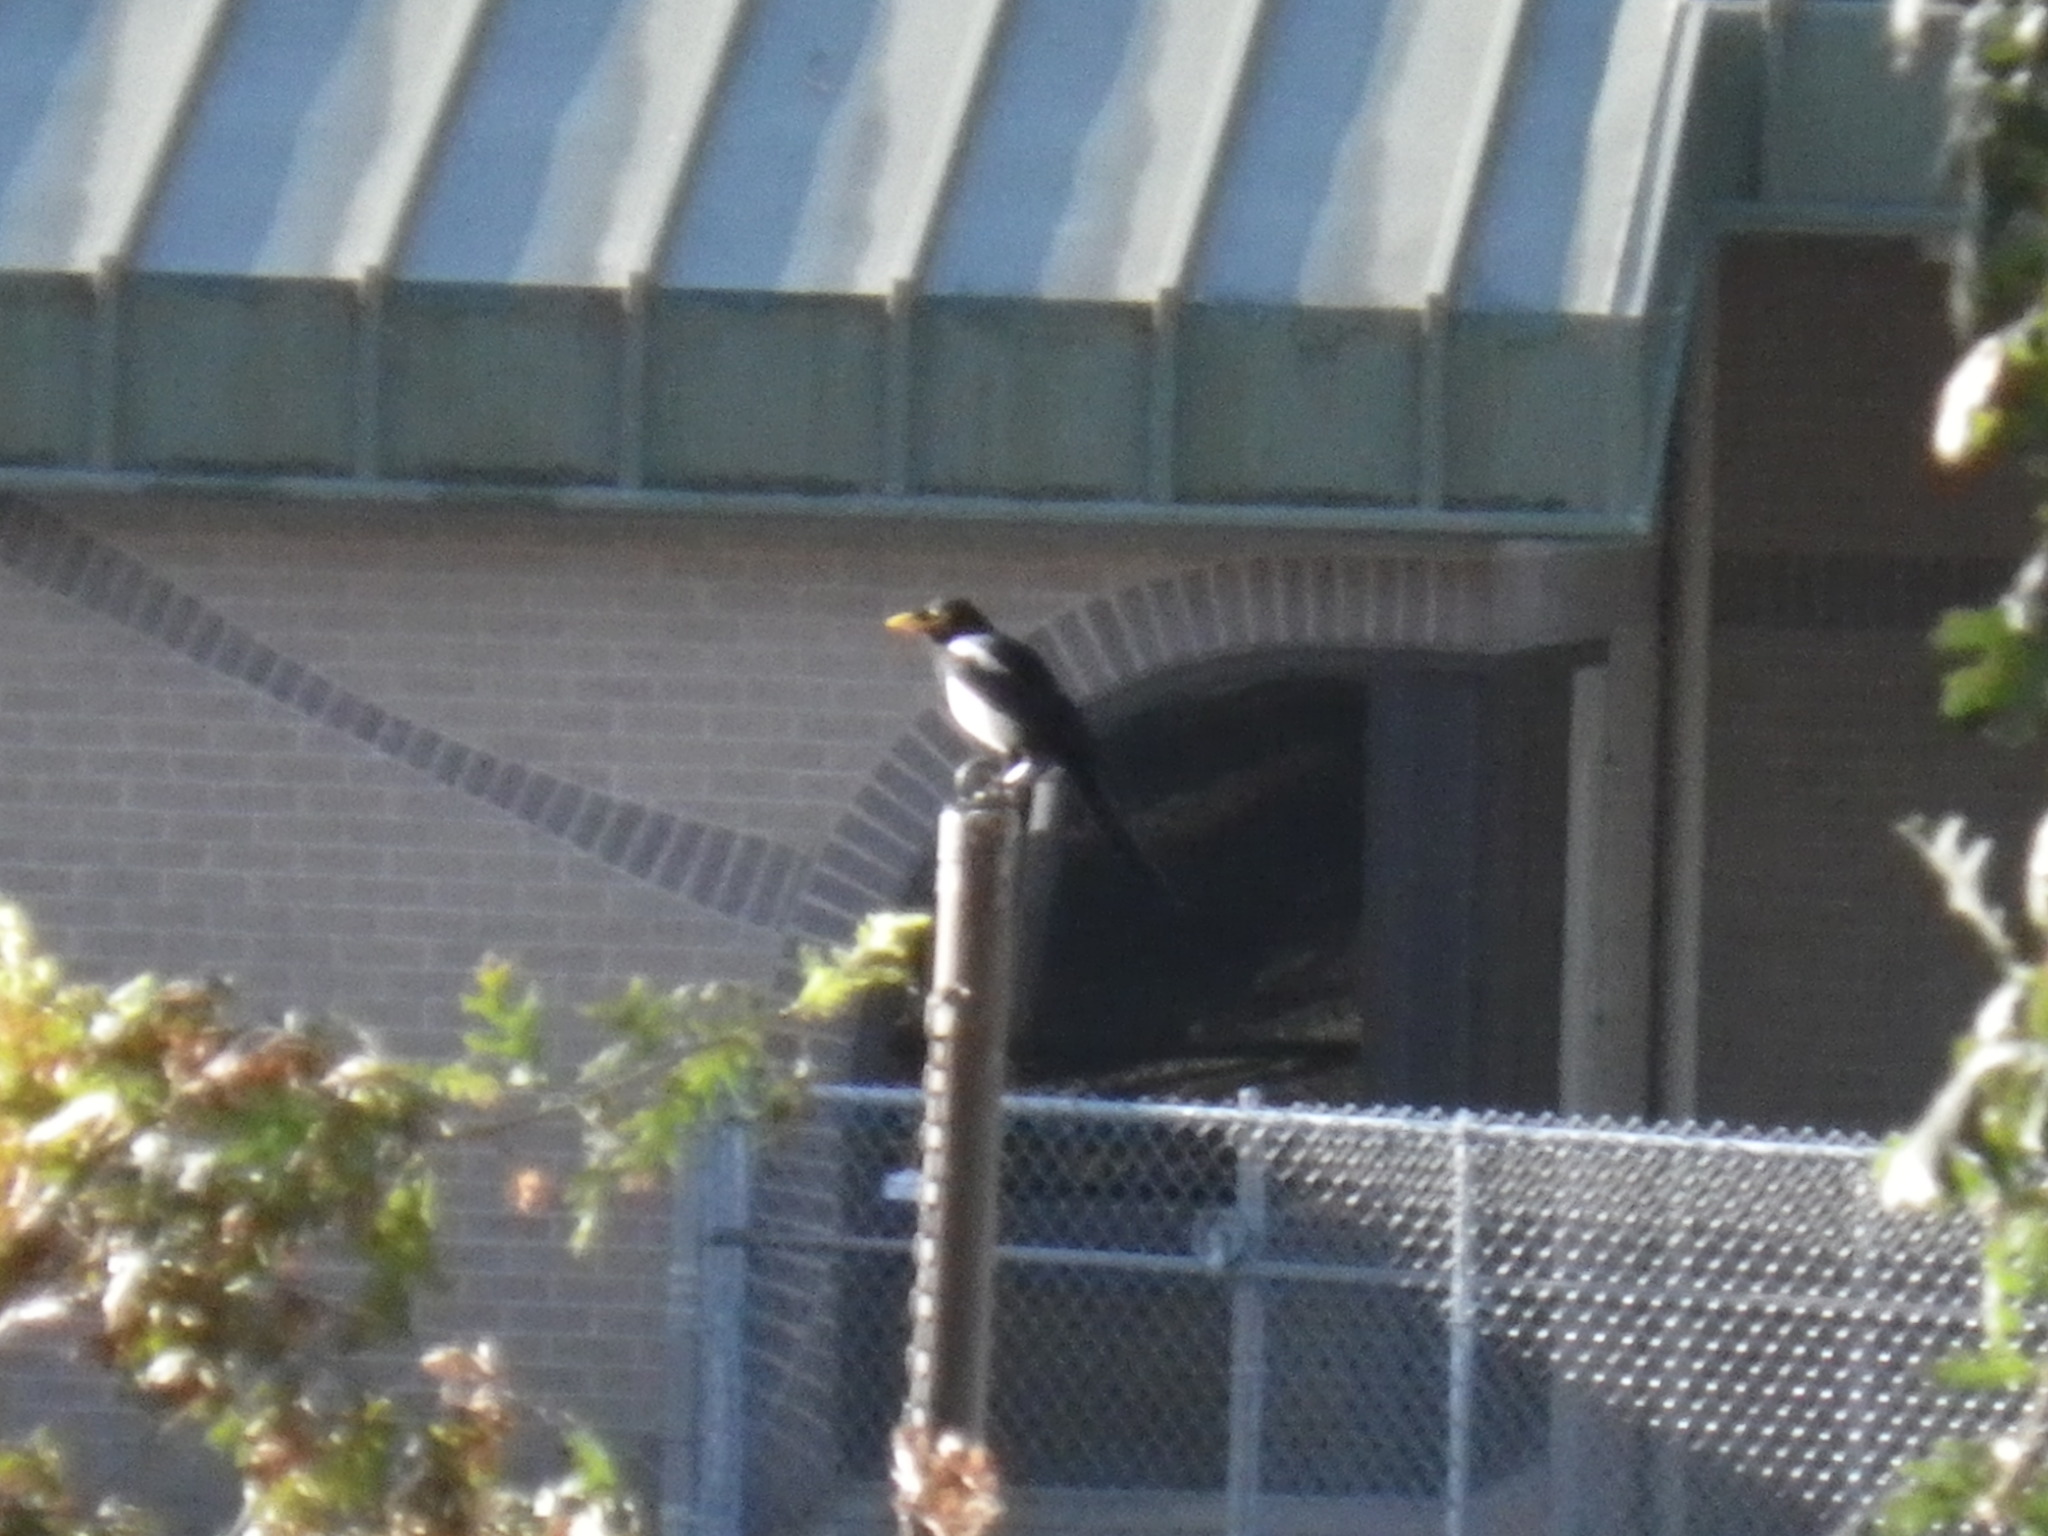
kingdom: Animalia
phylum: Chordata
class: Aves
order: Passeriformes
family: Corvidae
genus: Pica
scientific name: Pica nuttalli
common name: Yellow-billed magpie
